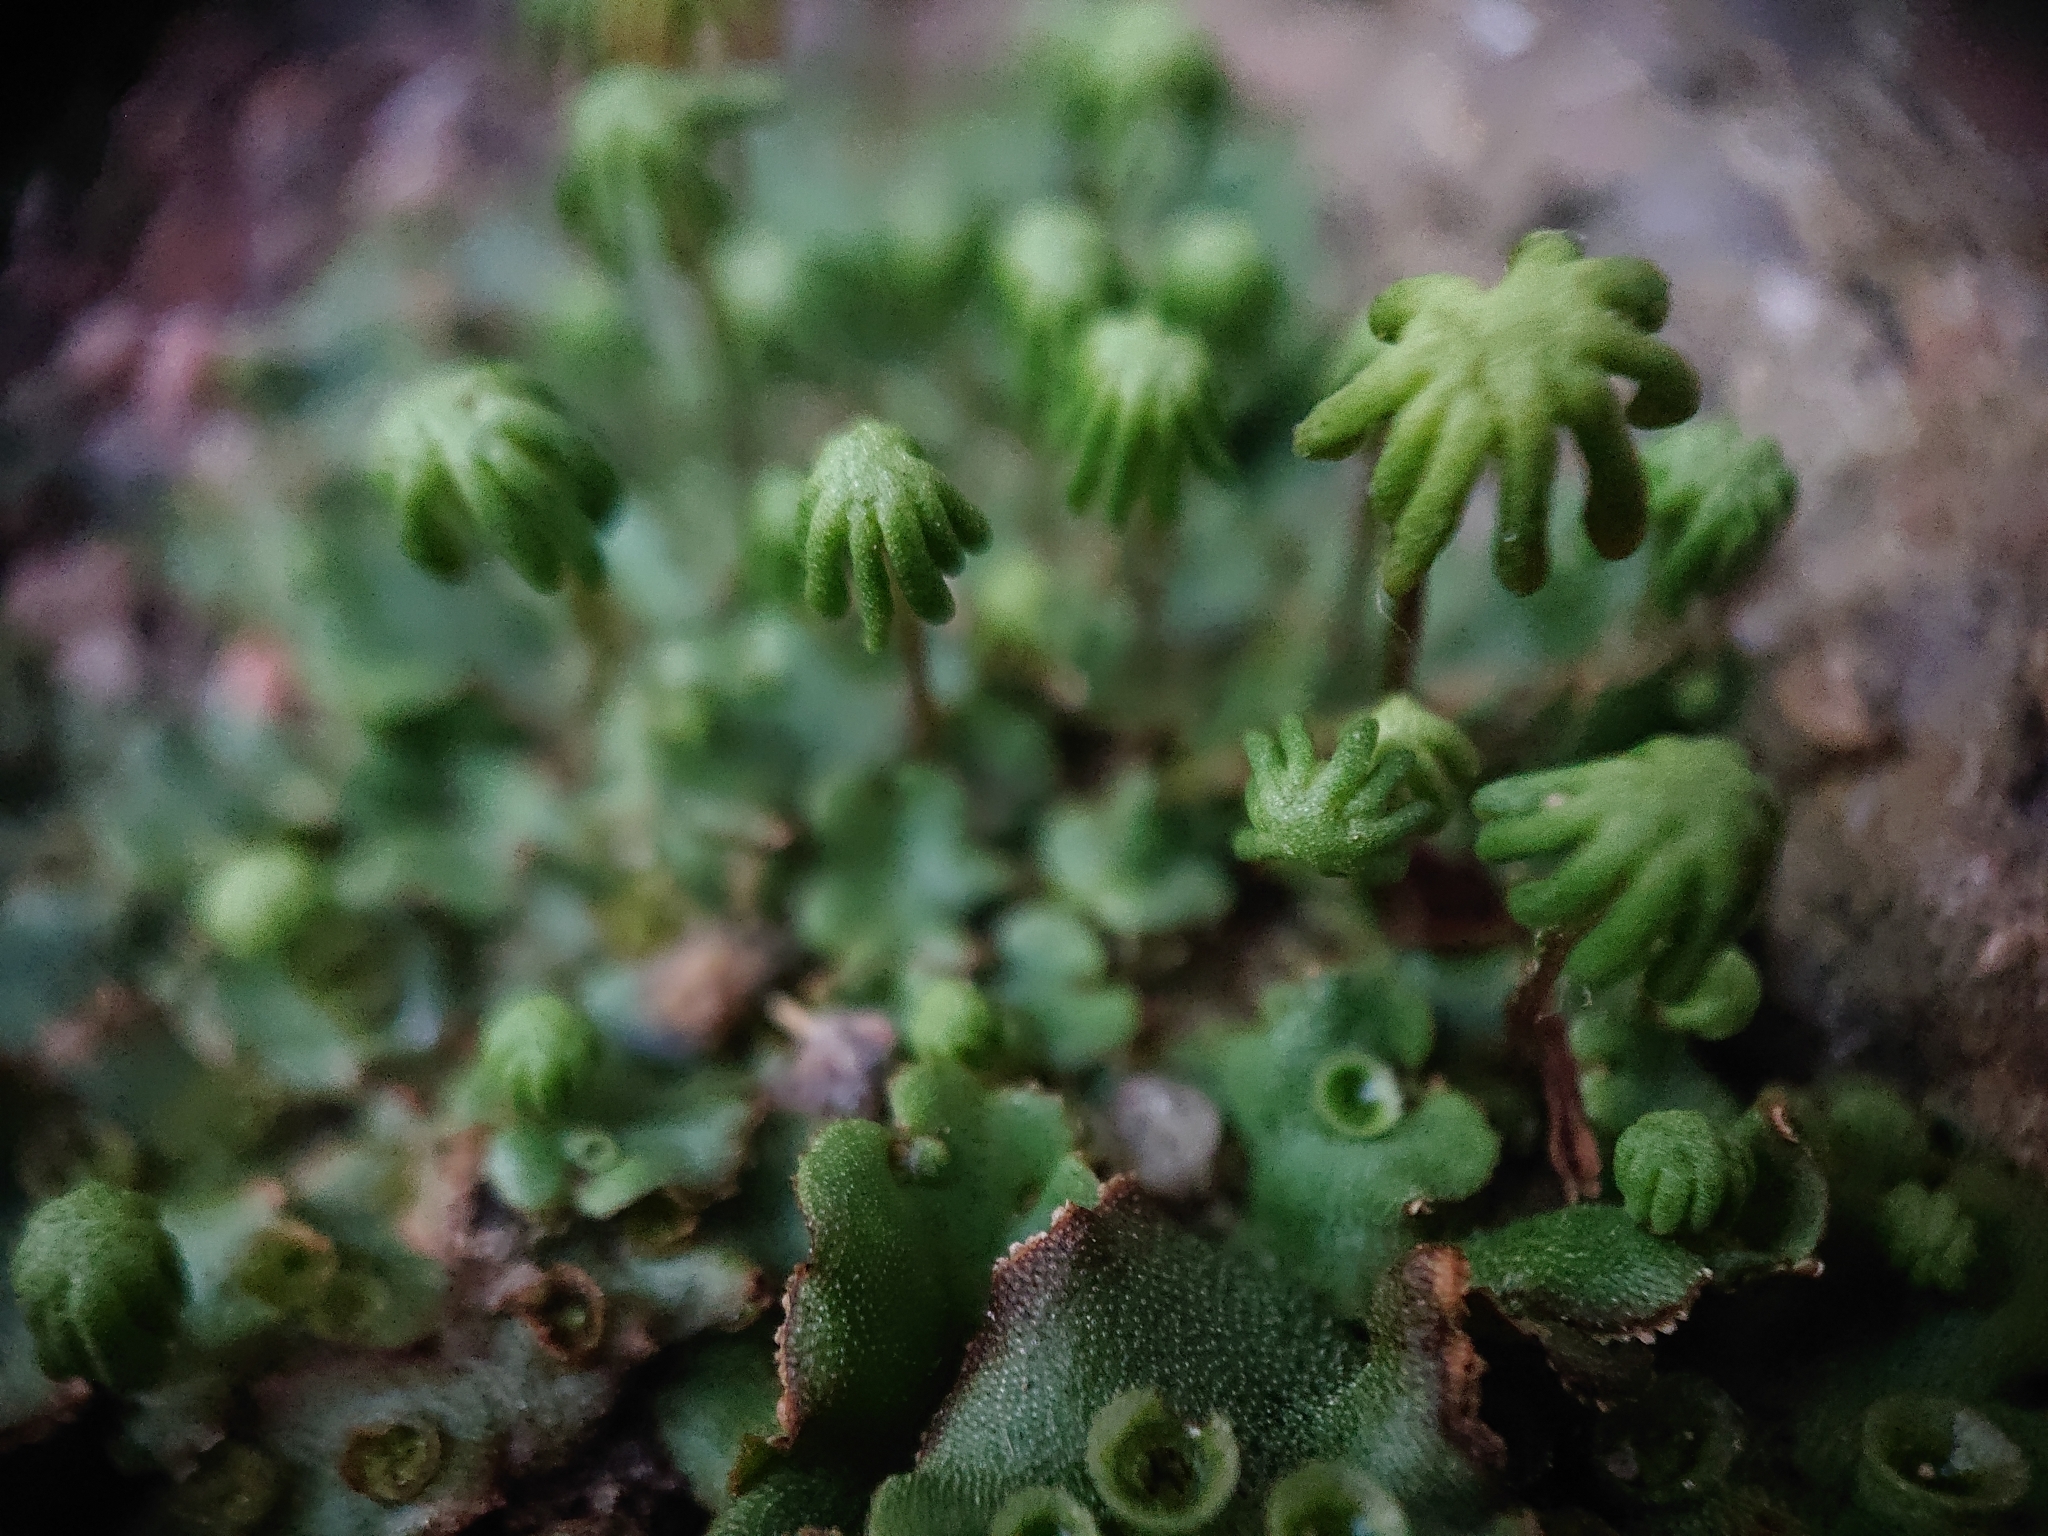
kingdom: Plantae
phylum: Marchantiophyta
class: Marchantiopsida
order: Marchantiales
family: Marchantiaceae
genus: Marchantia
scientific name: Marchantia polymorpha
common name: Common liverwort
